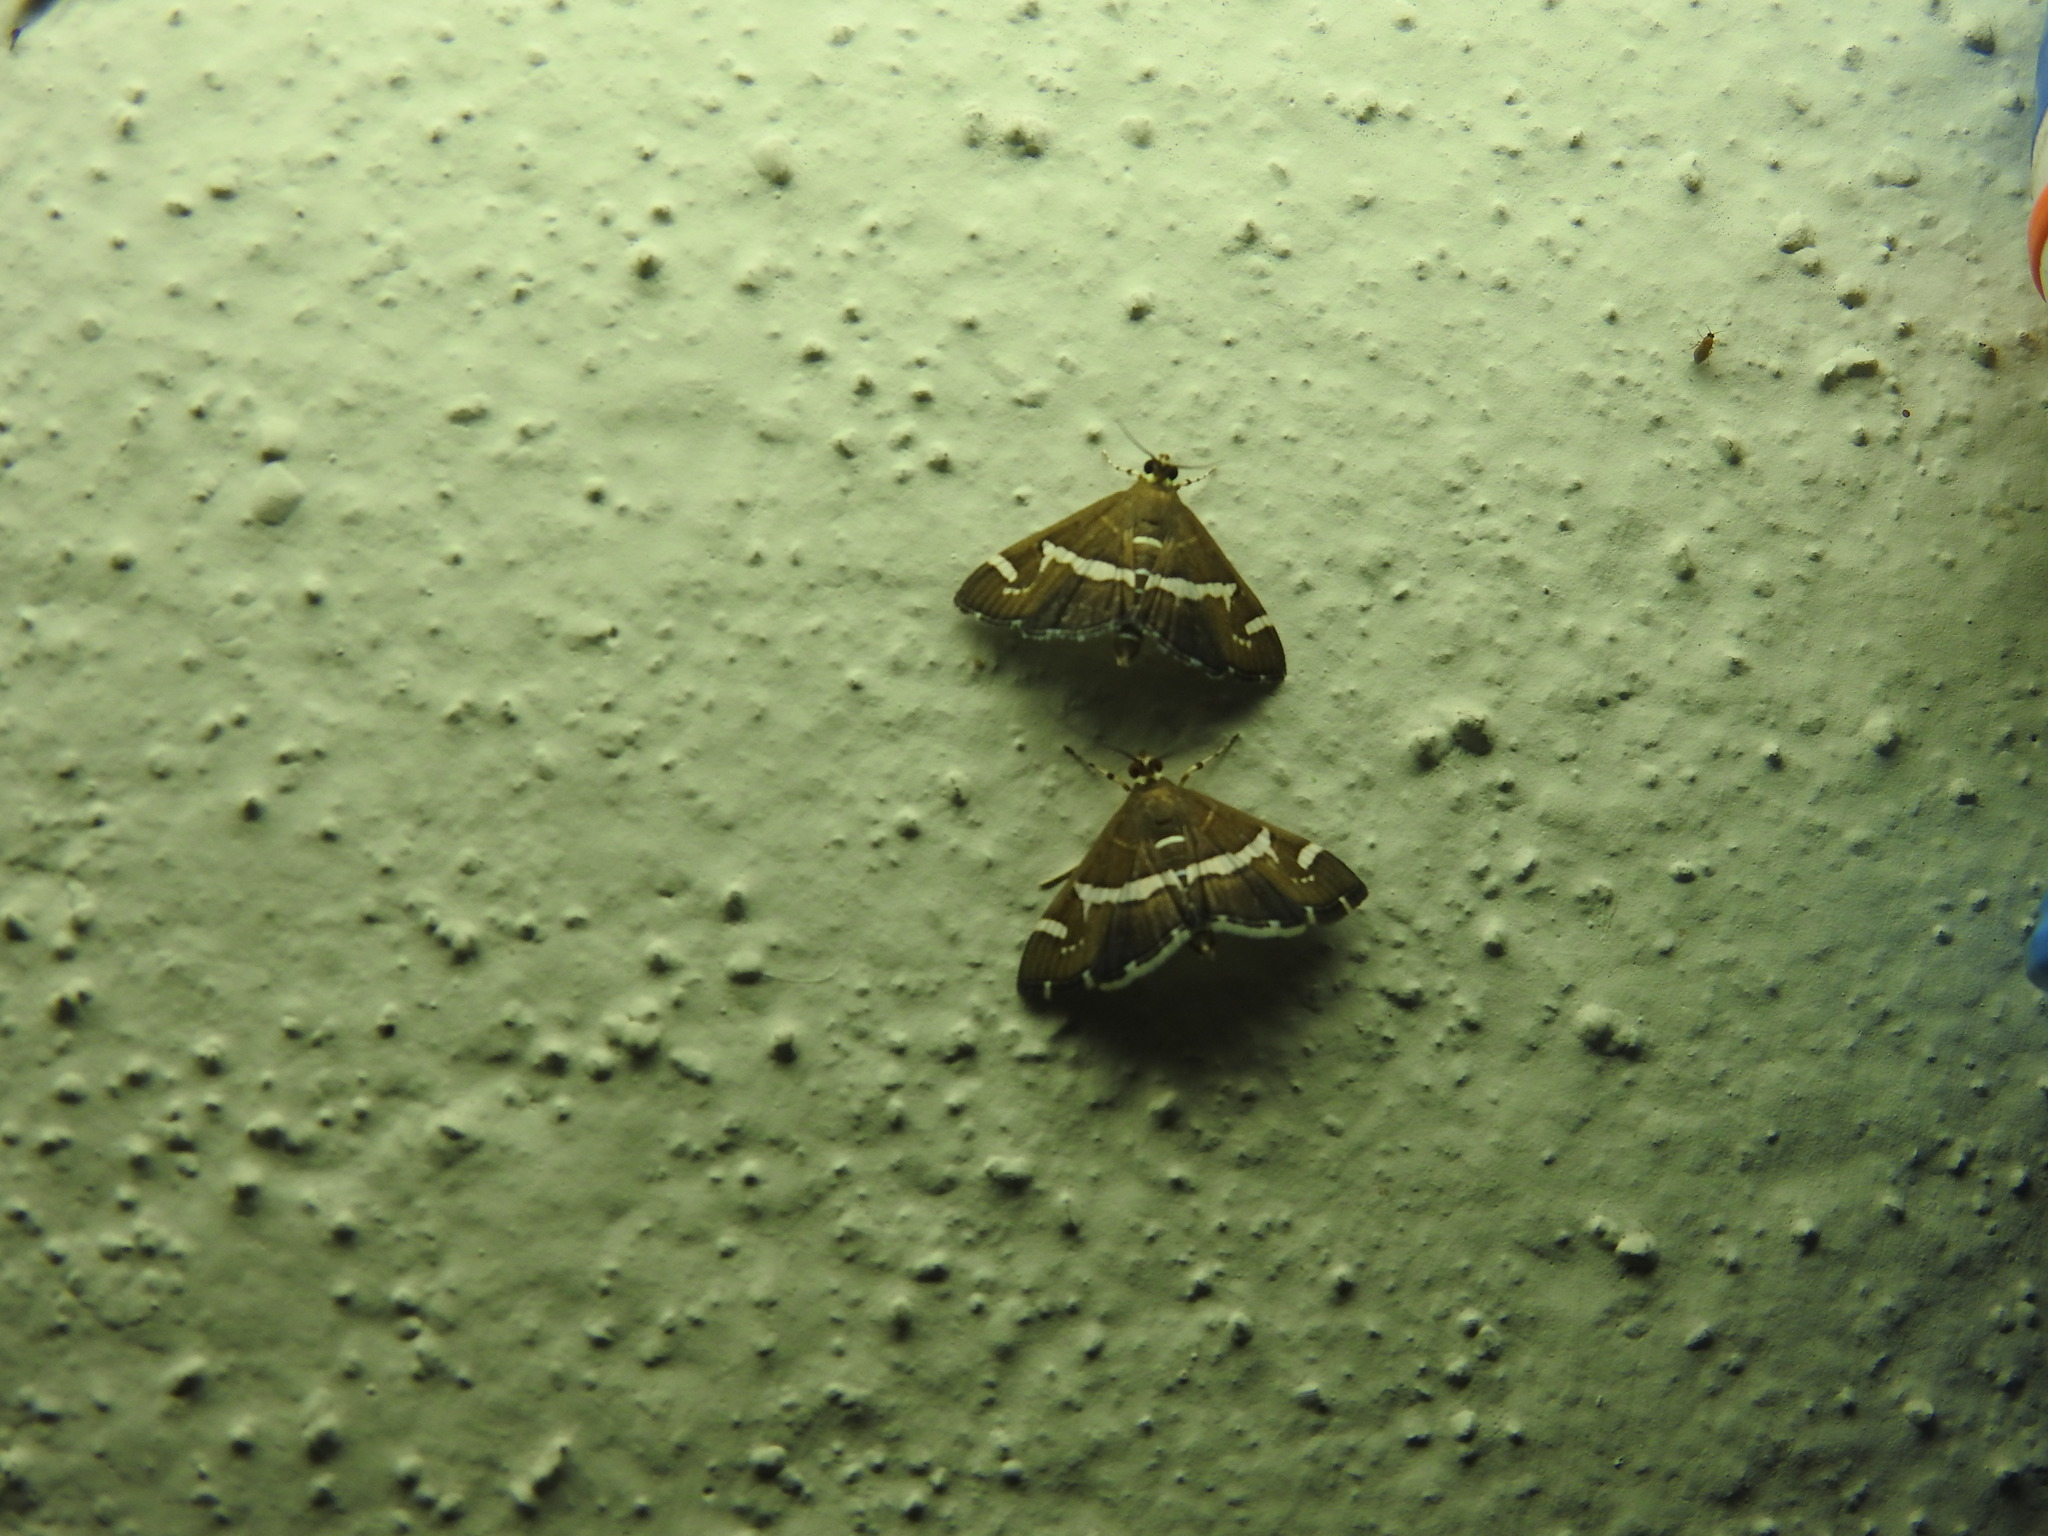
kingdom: Animalia
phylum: Arthropoda
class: Insecta
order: Lepidoptera
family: Crambidae
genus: Spoladea
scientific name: Spoladea recurvalis
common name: Beet webworm moth
